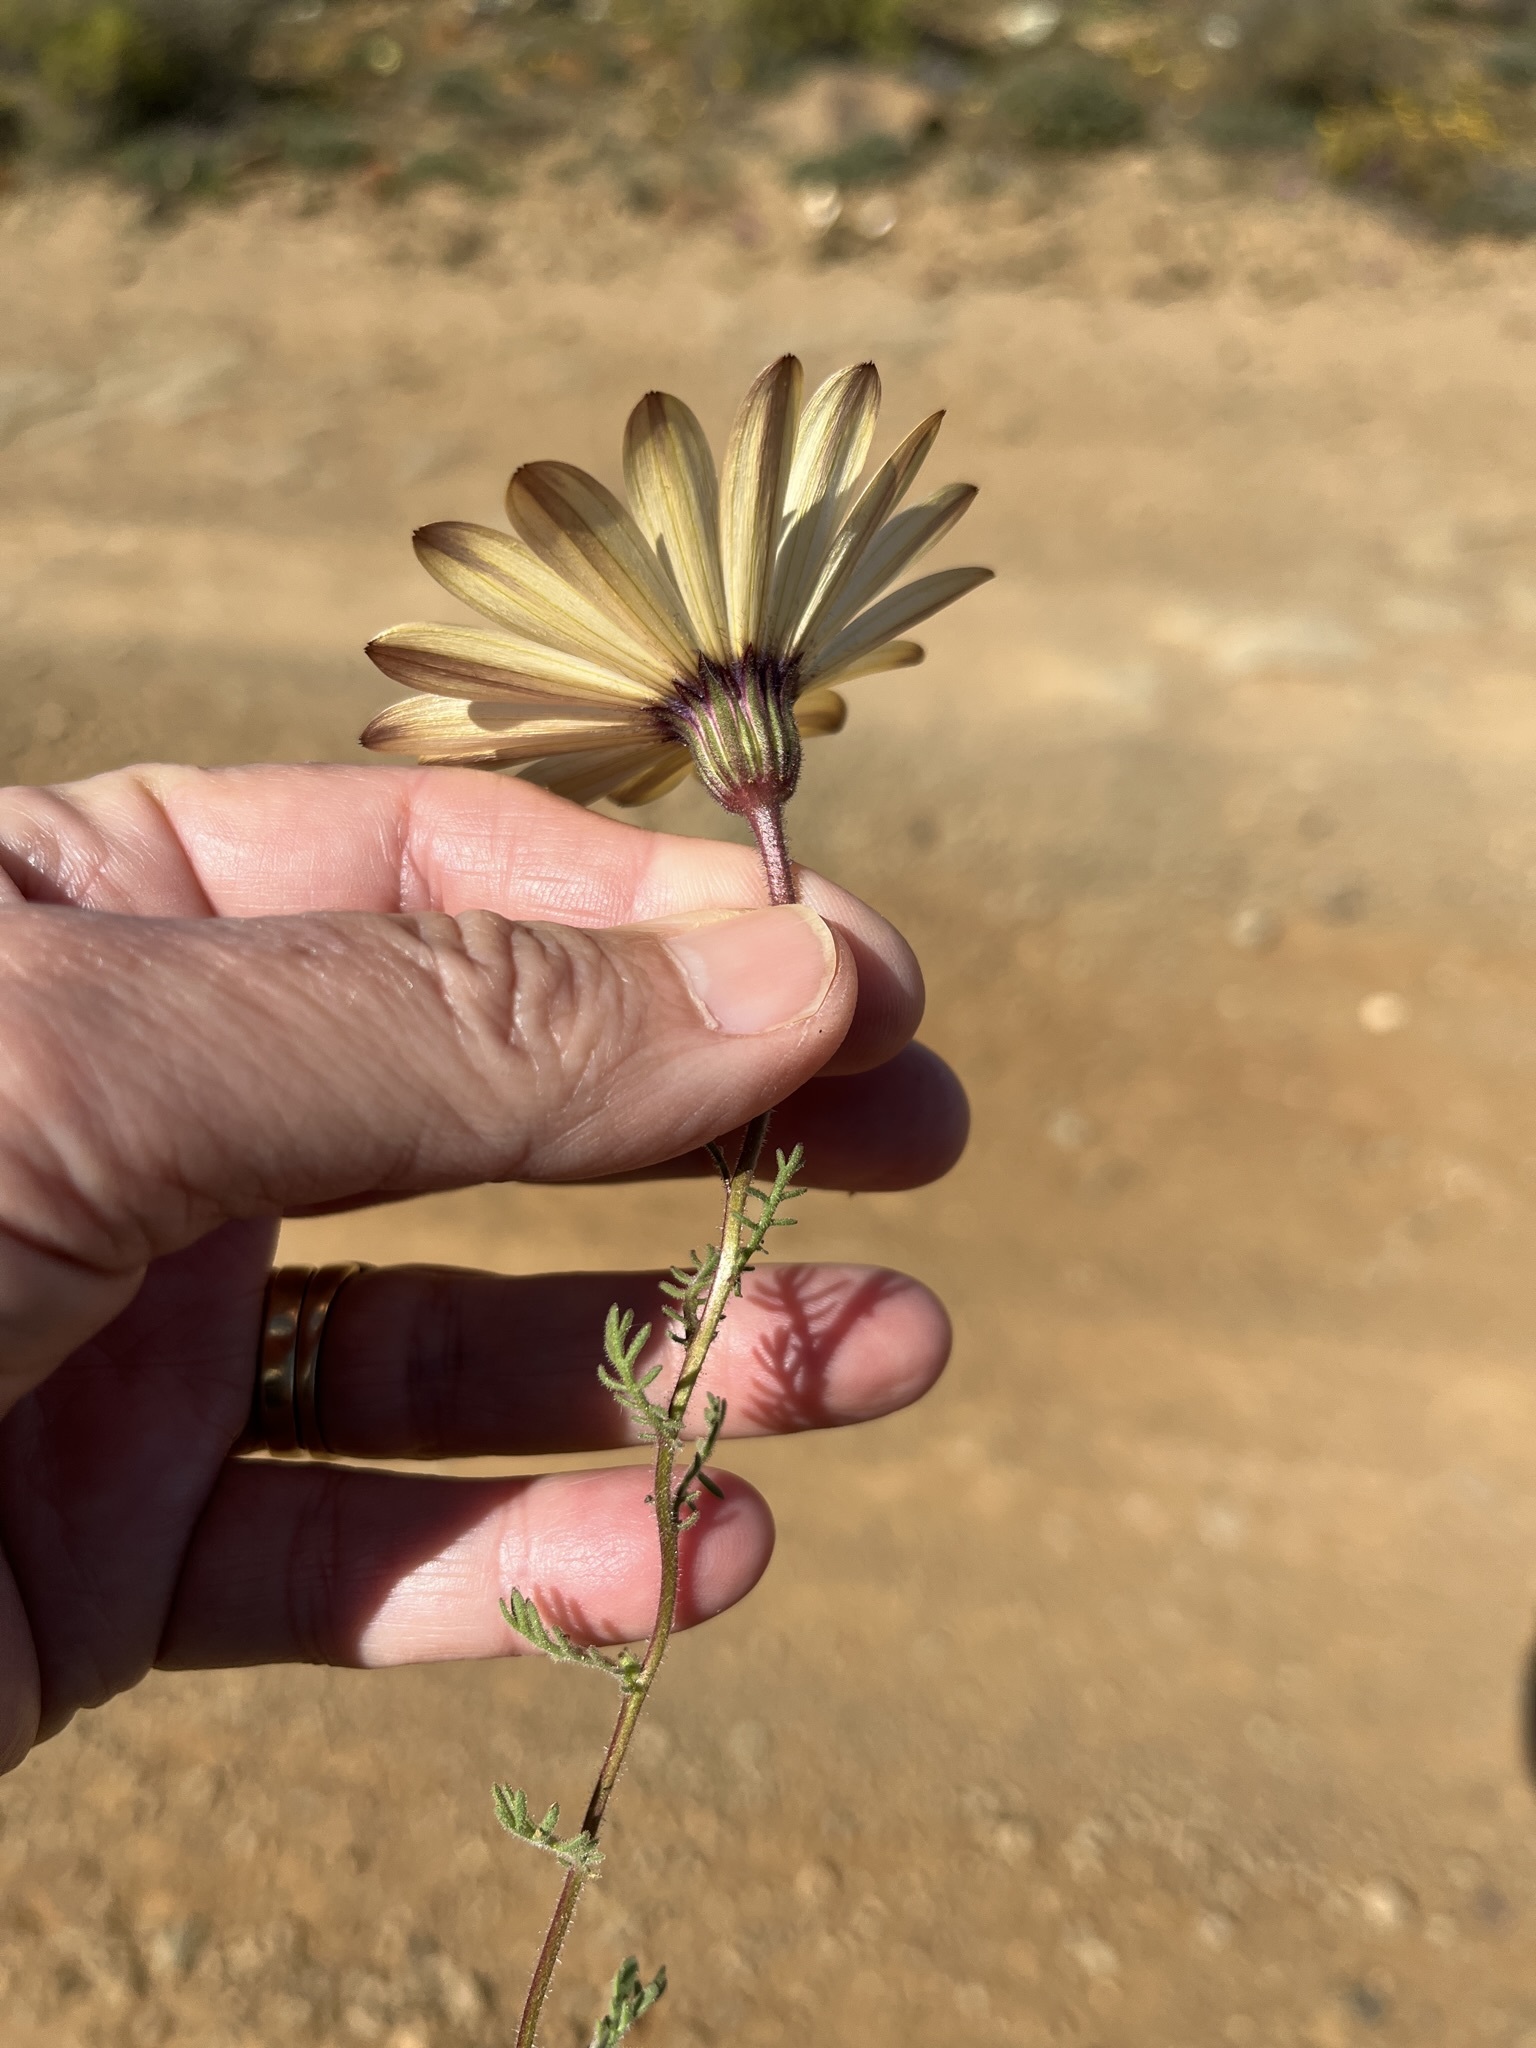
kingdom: Plantae
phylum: Tracheophyta
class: Magnoliopsida
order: Asterales
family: Asteraceae
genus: Dimorphotheca
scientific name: Dimorphotheca pinnata
